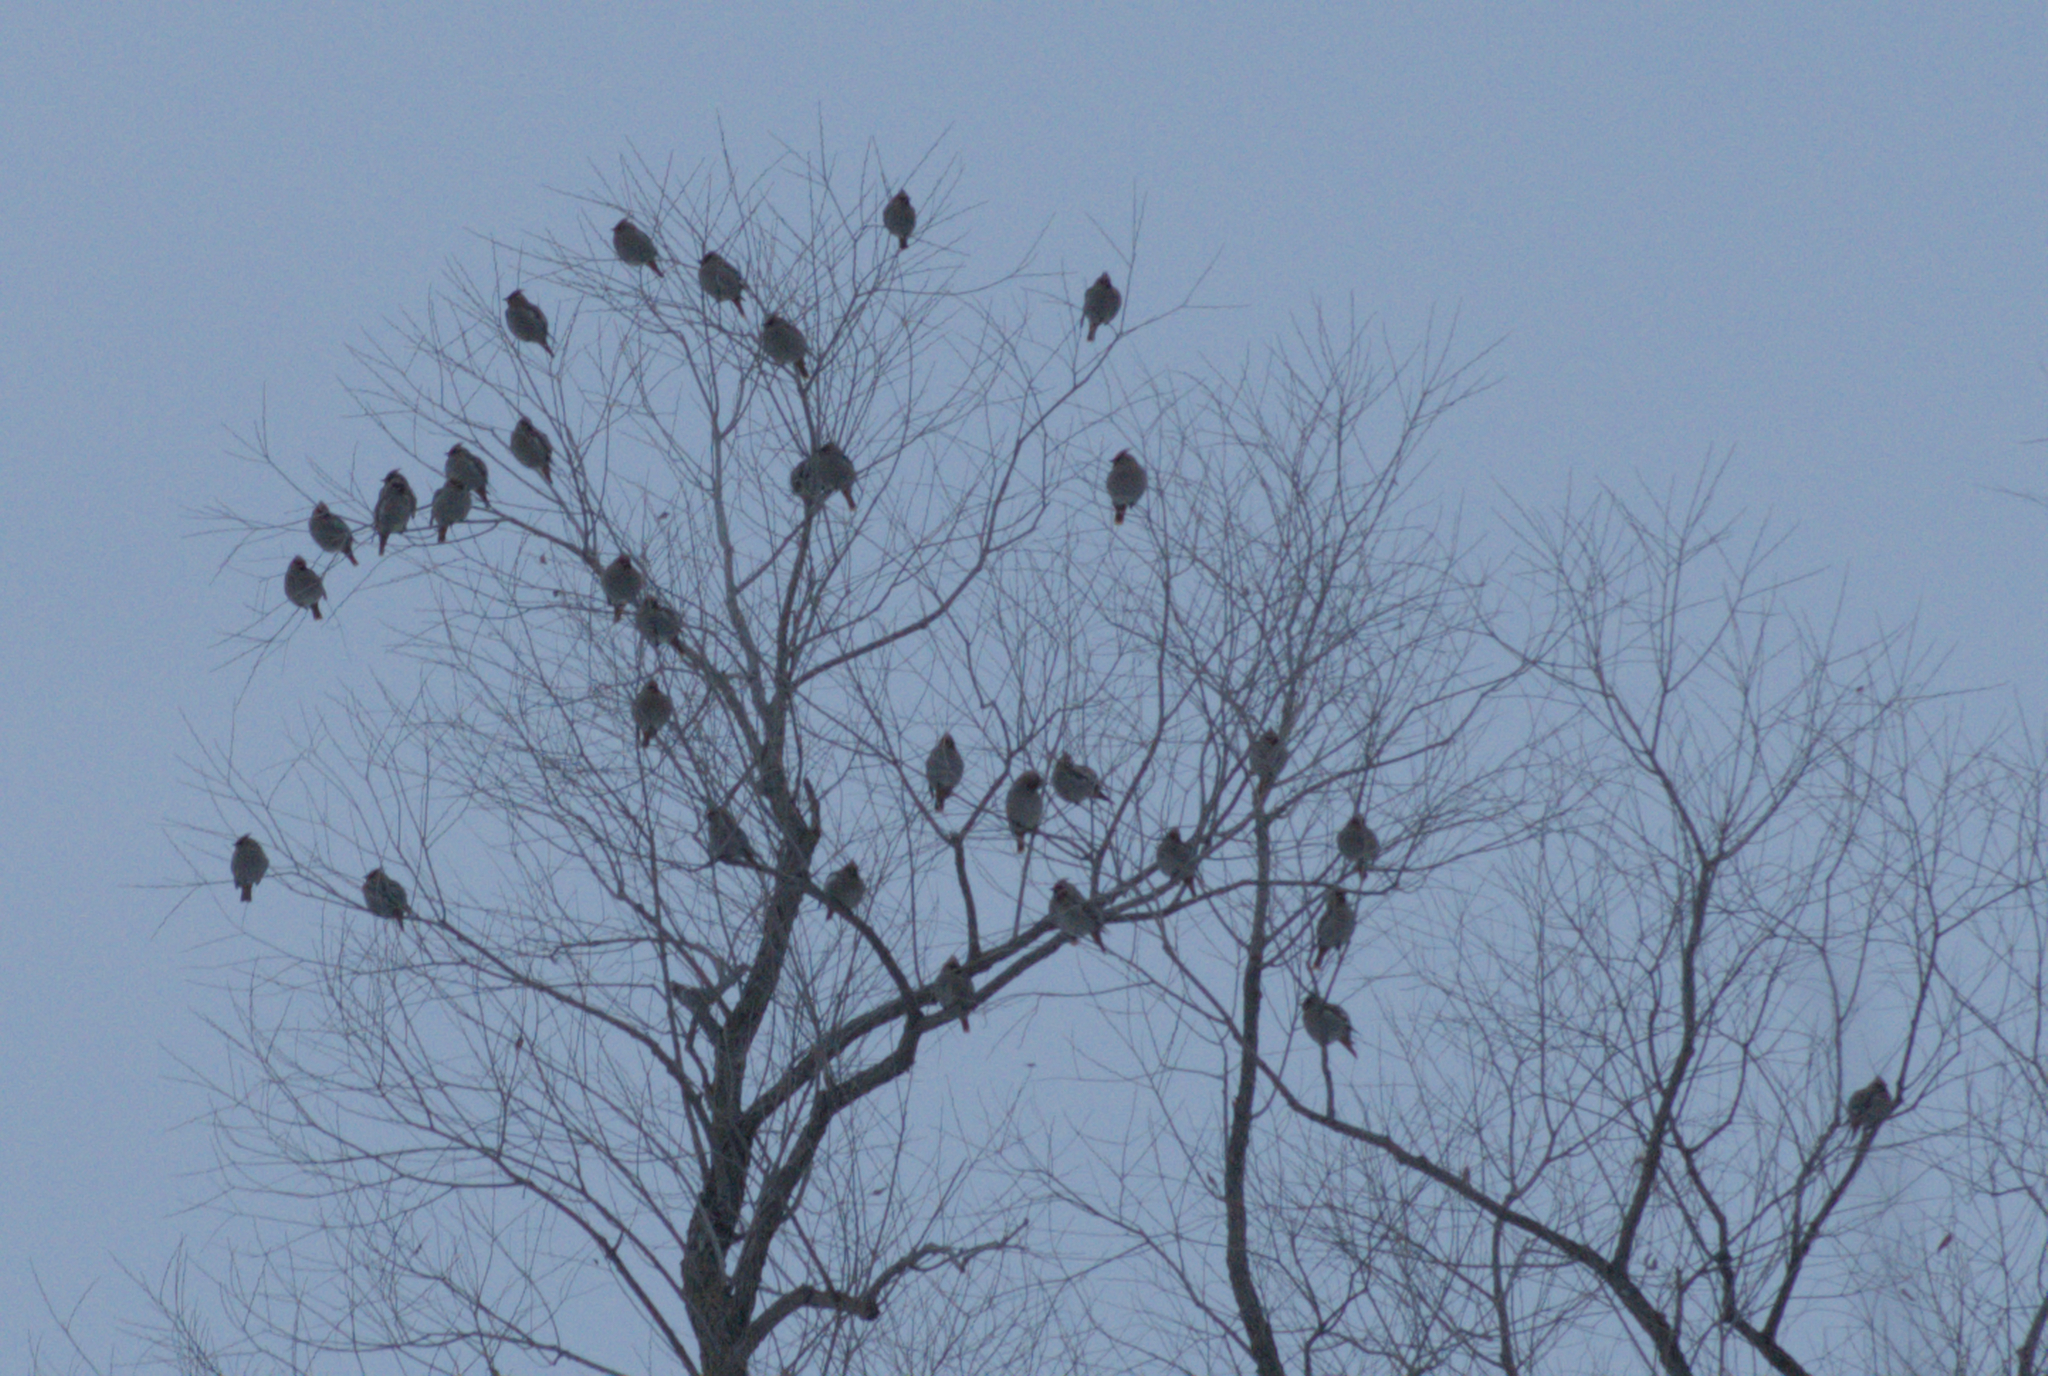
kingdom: Animalia
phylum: Chordata
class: Aves
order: Passeriformes
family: Bombycillidae
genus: Bombycilla
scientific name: Bombycilla garrulus
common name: Bohemian waxwing
